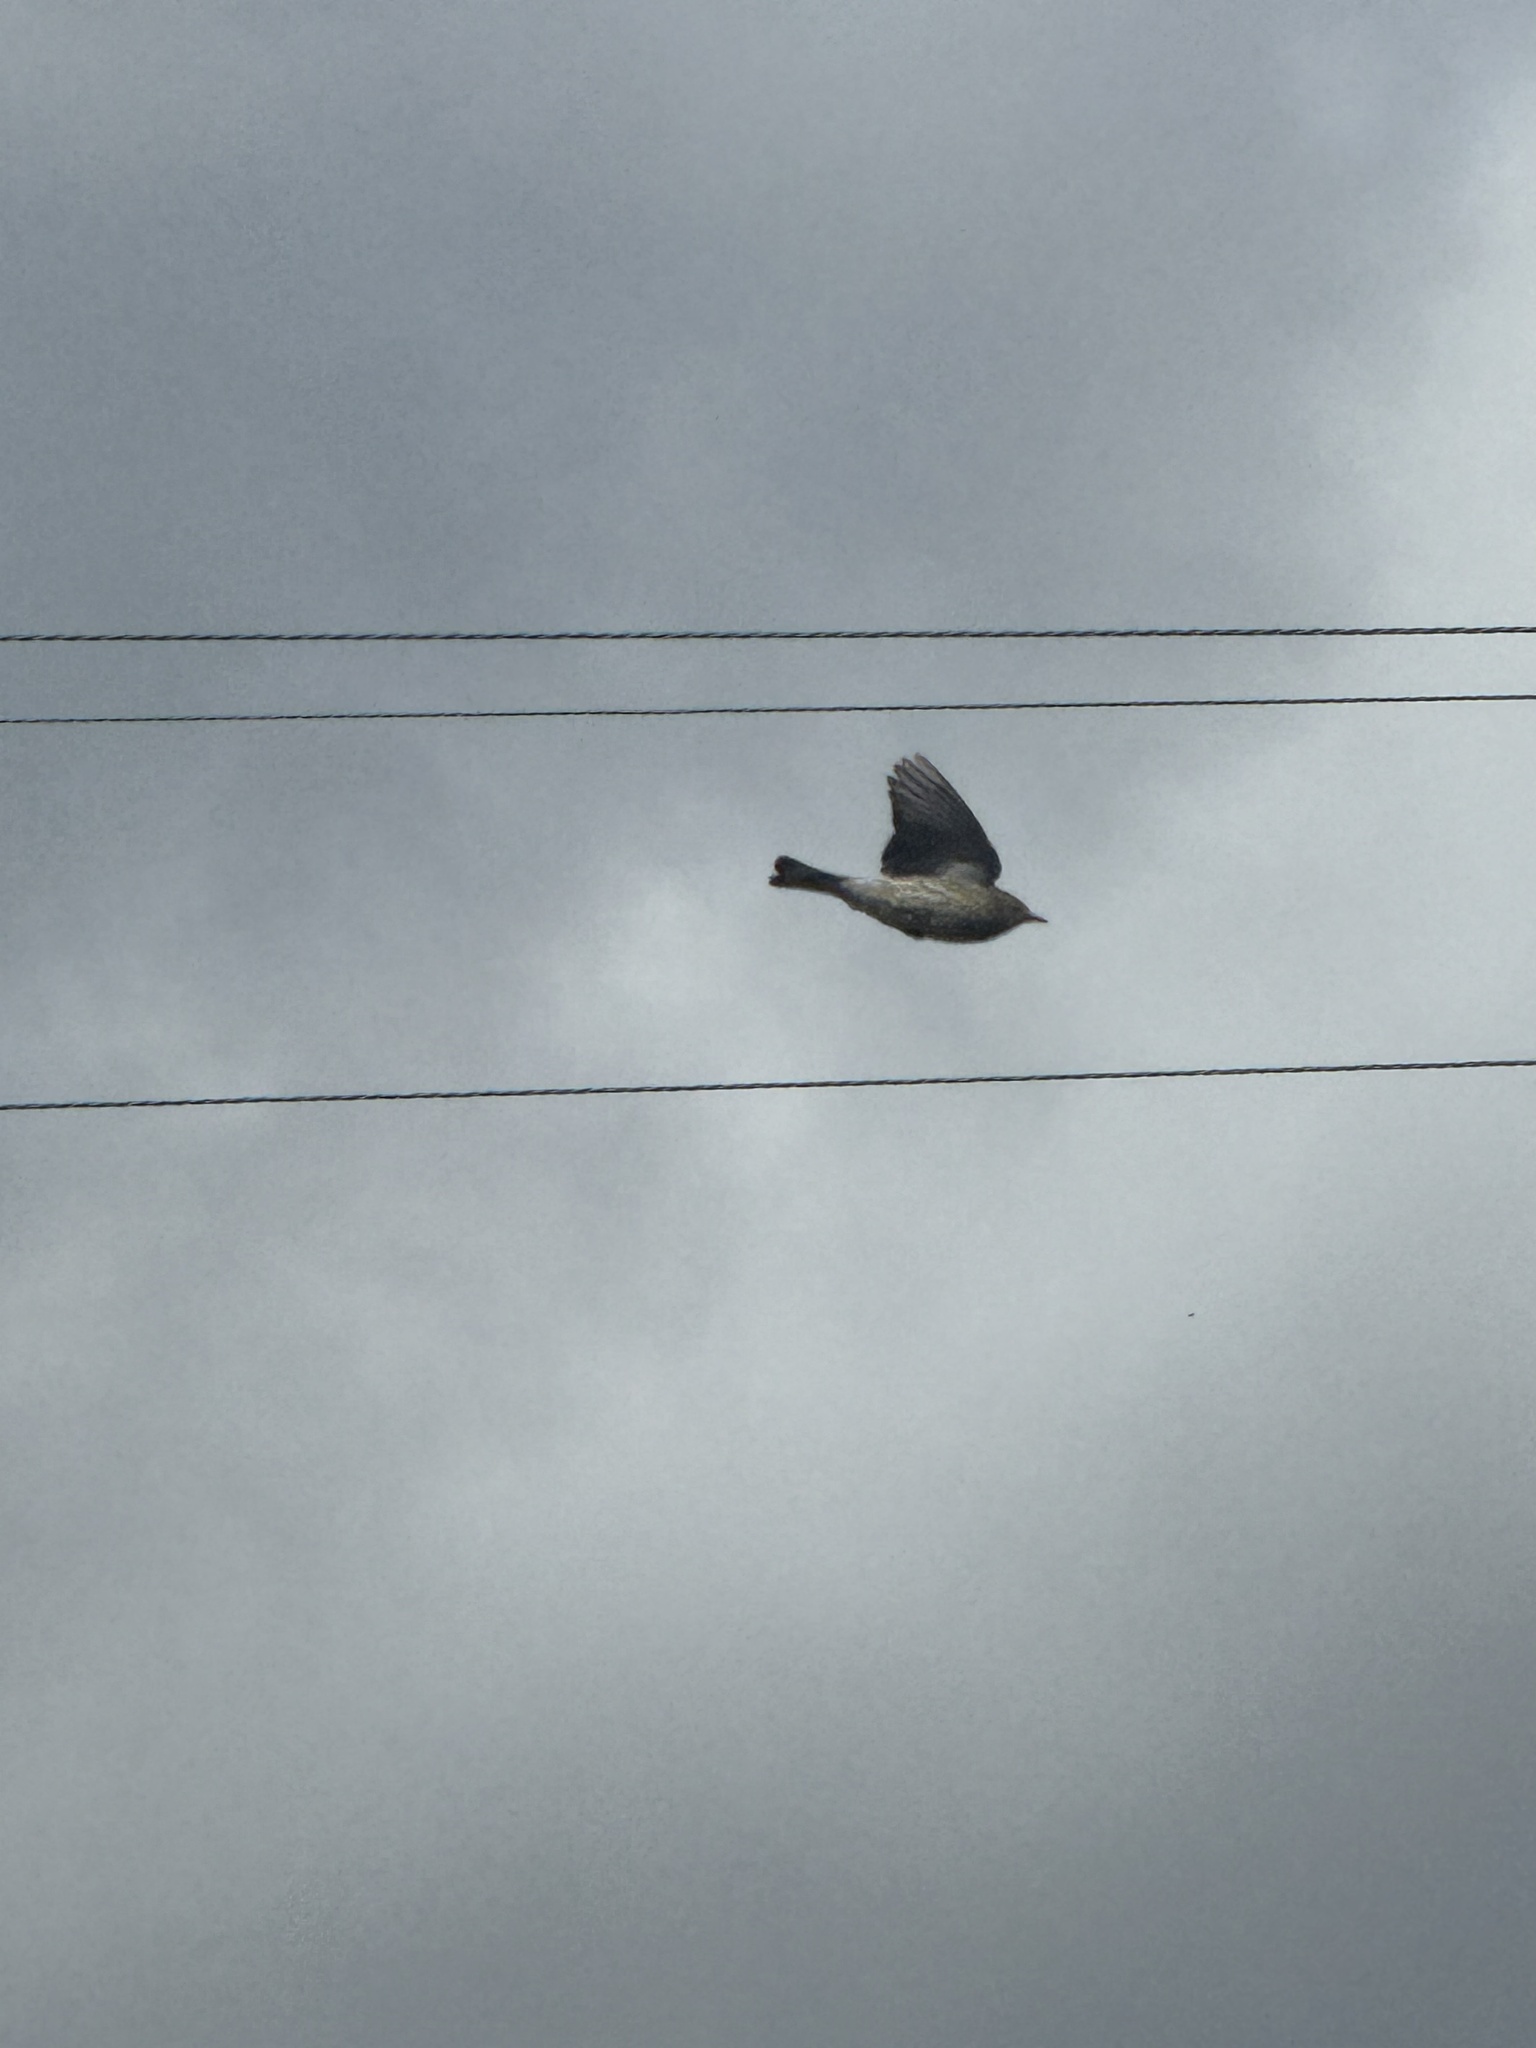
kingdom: Animalia
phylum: Chordata
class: Aves
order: Passeriformes
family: Parulidae
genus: Setophaga
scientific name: Setophaga coronata
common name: Myrtle warbler
